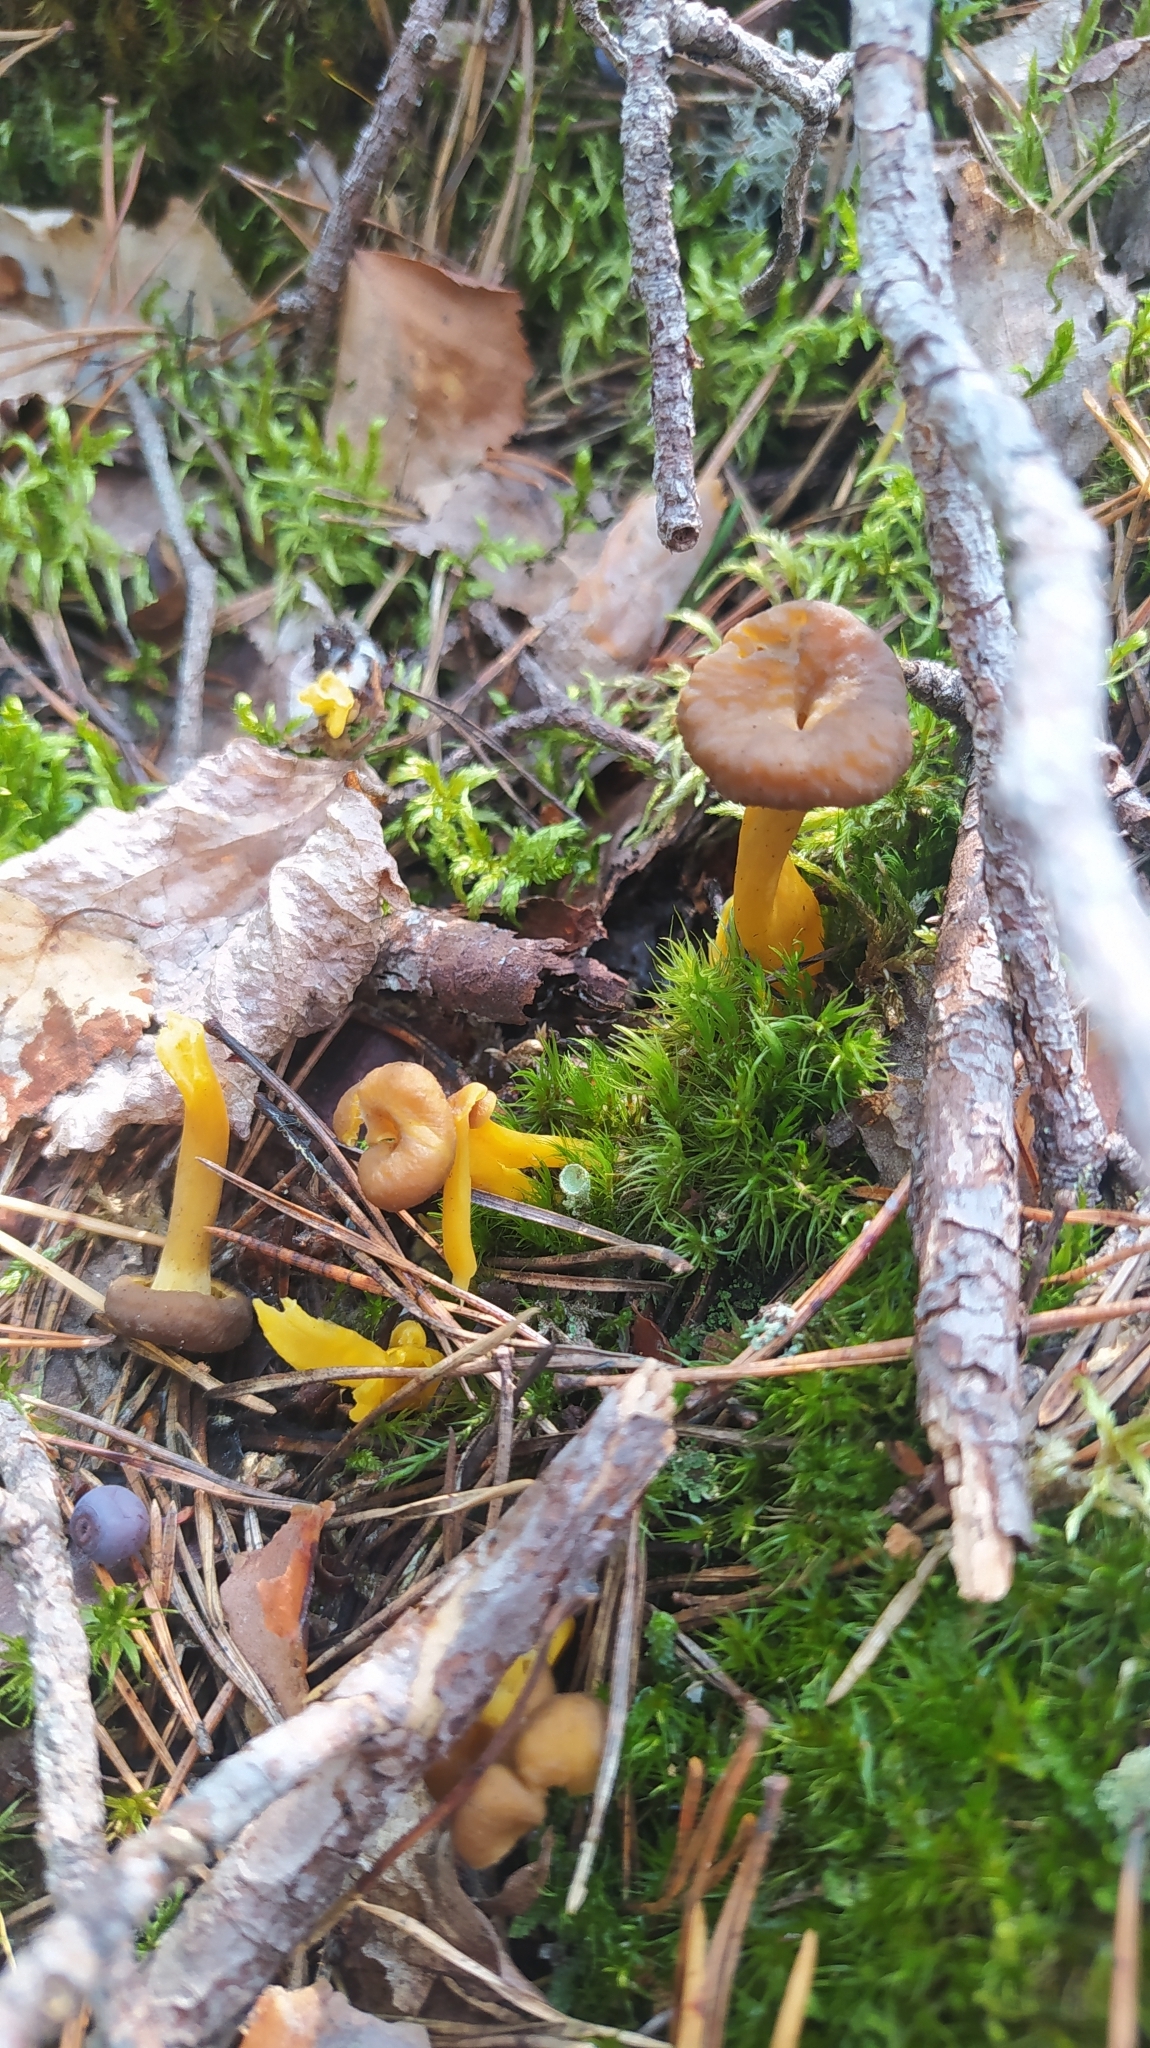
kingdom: Fungi
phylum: Basidiomycota
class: Agaricomycetes
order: Cantharellales
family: Hydnaceae
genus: Craterellus
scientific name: Craterellus tubaeformis
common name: Yellowfoot
